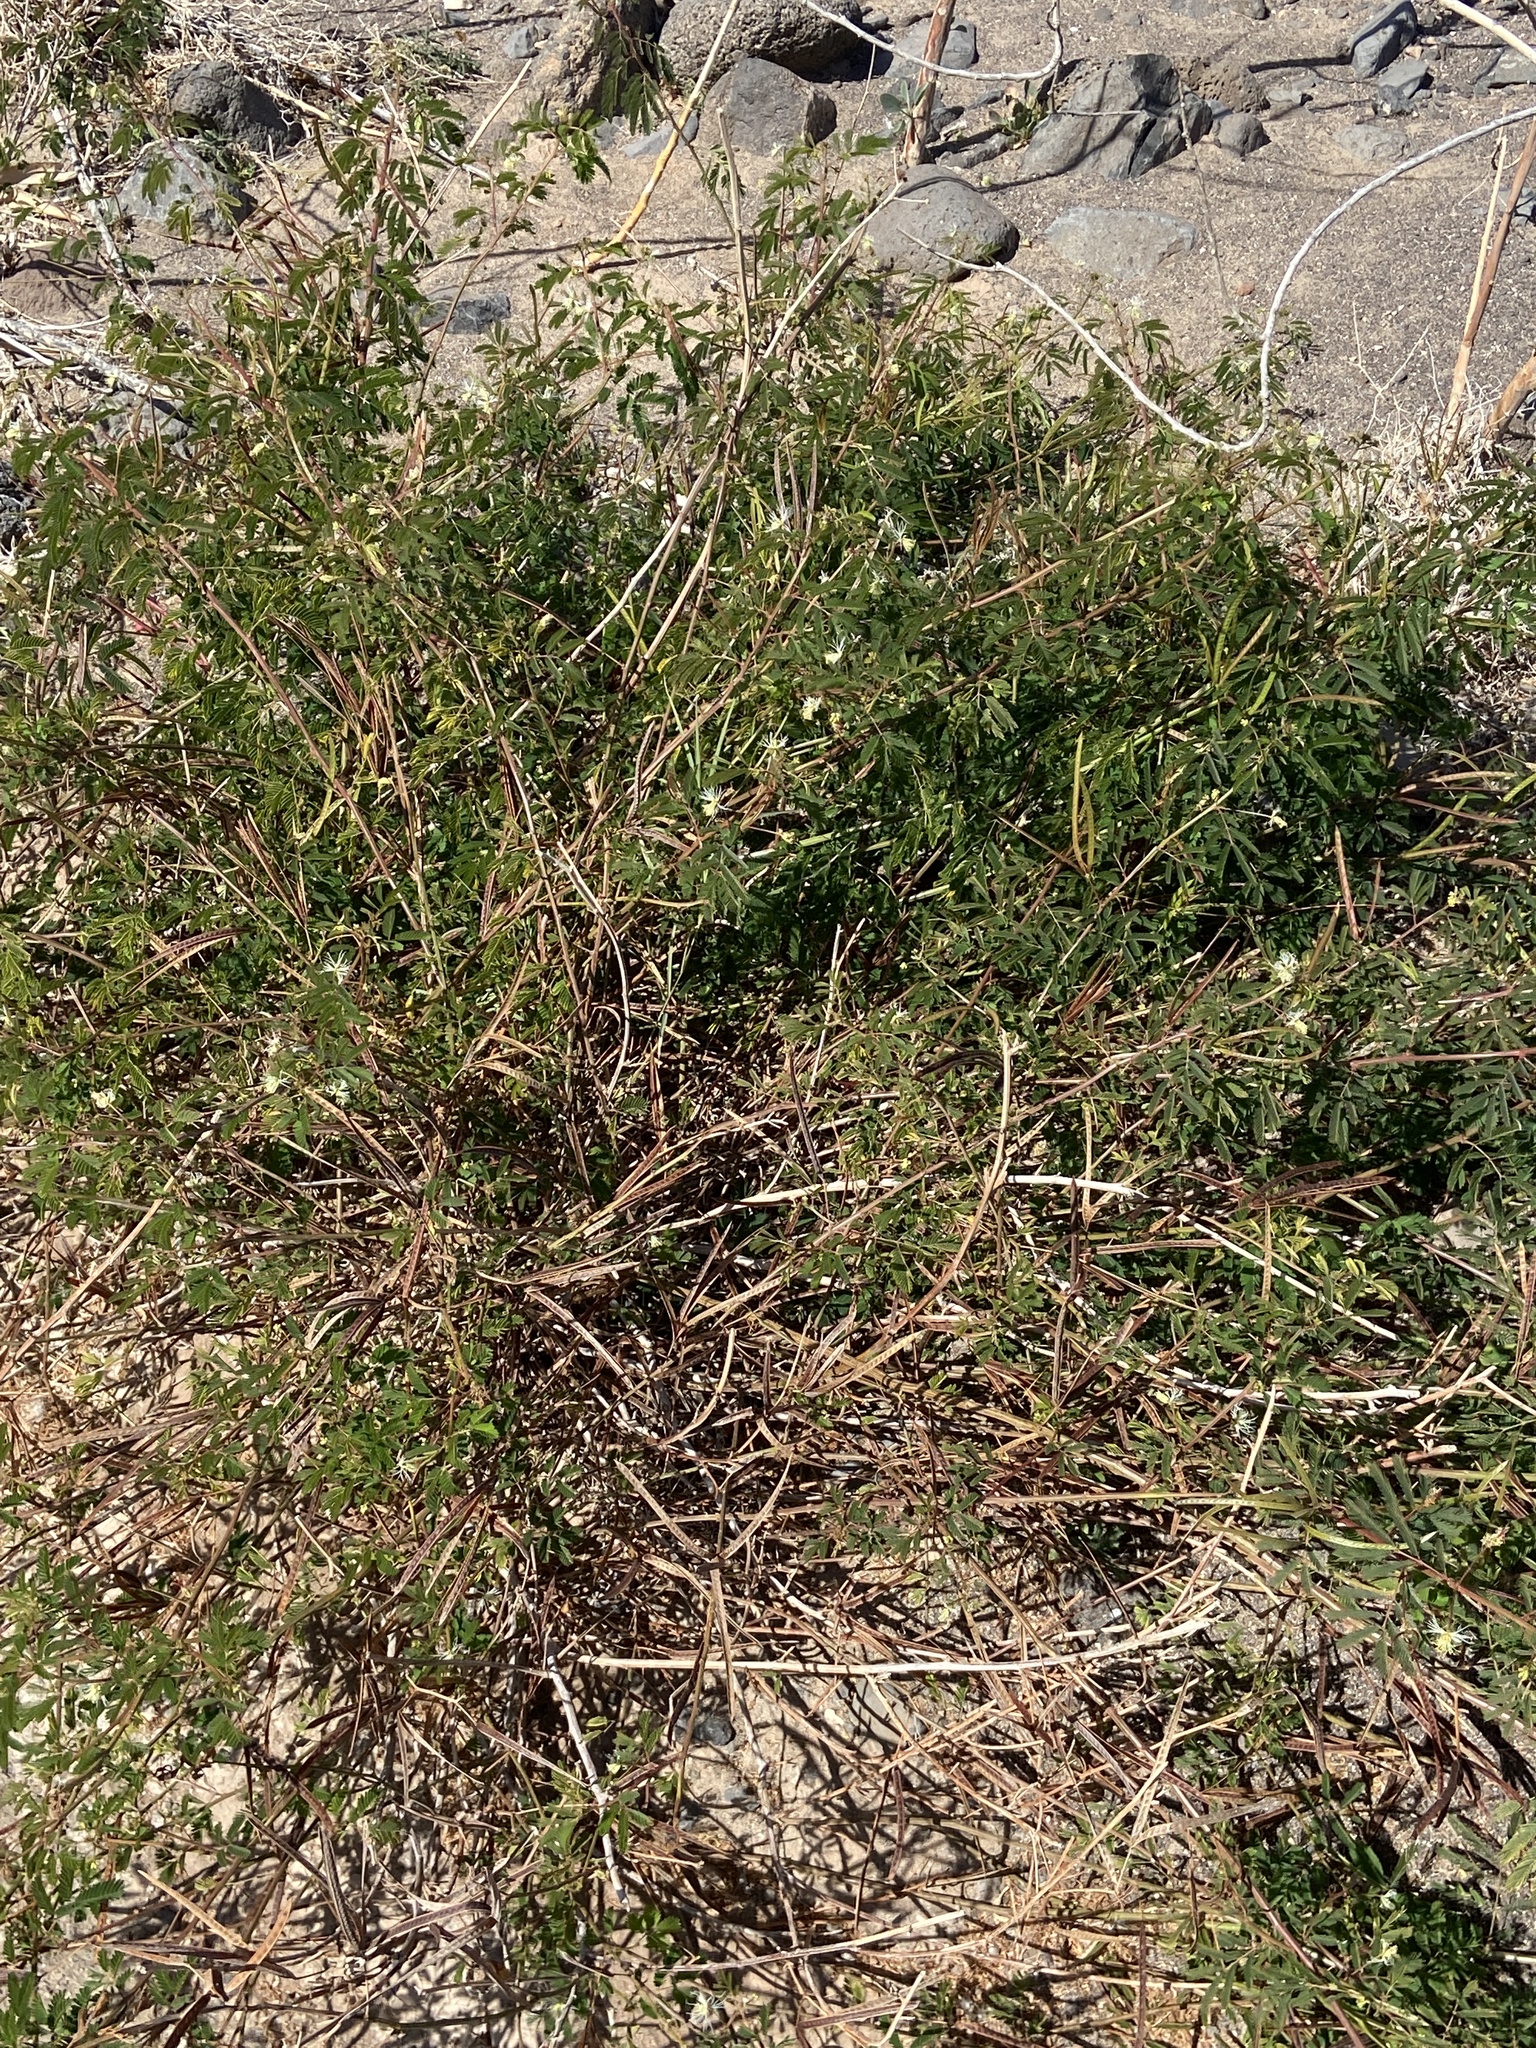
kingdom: Plantae
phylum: Tracheophyta
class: Magnoliopsida
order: Fabales
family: Fabaceae
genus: Desmanthus
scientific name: Desmanthus virgatus
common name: Wild tantan
